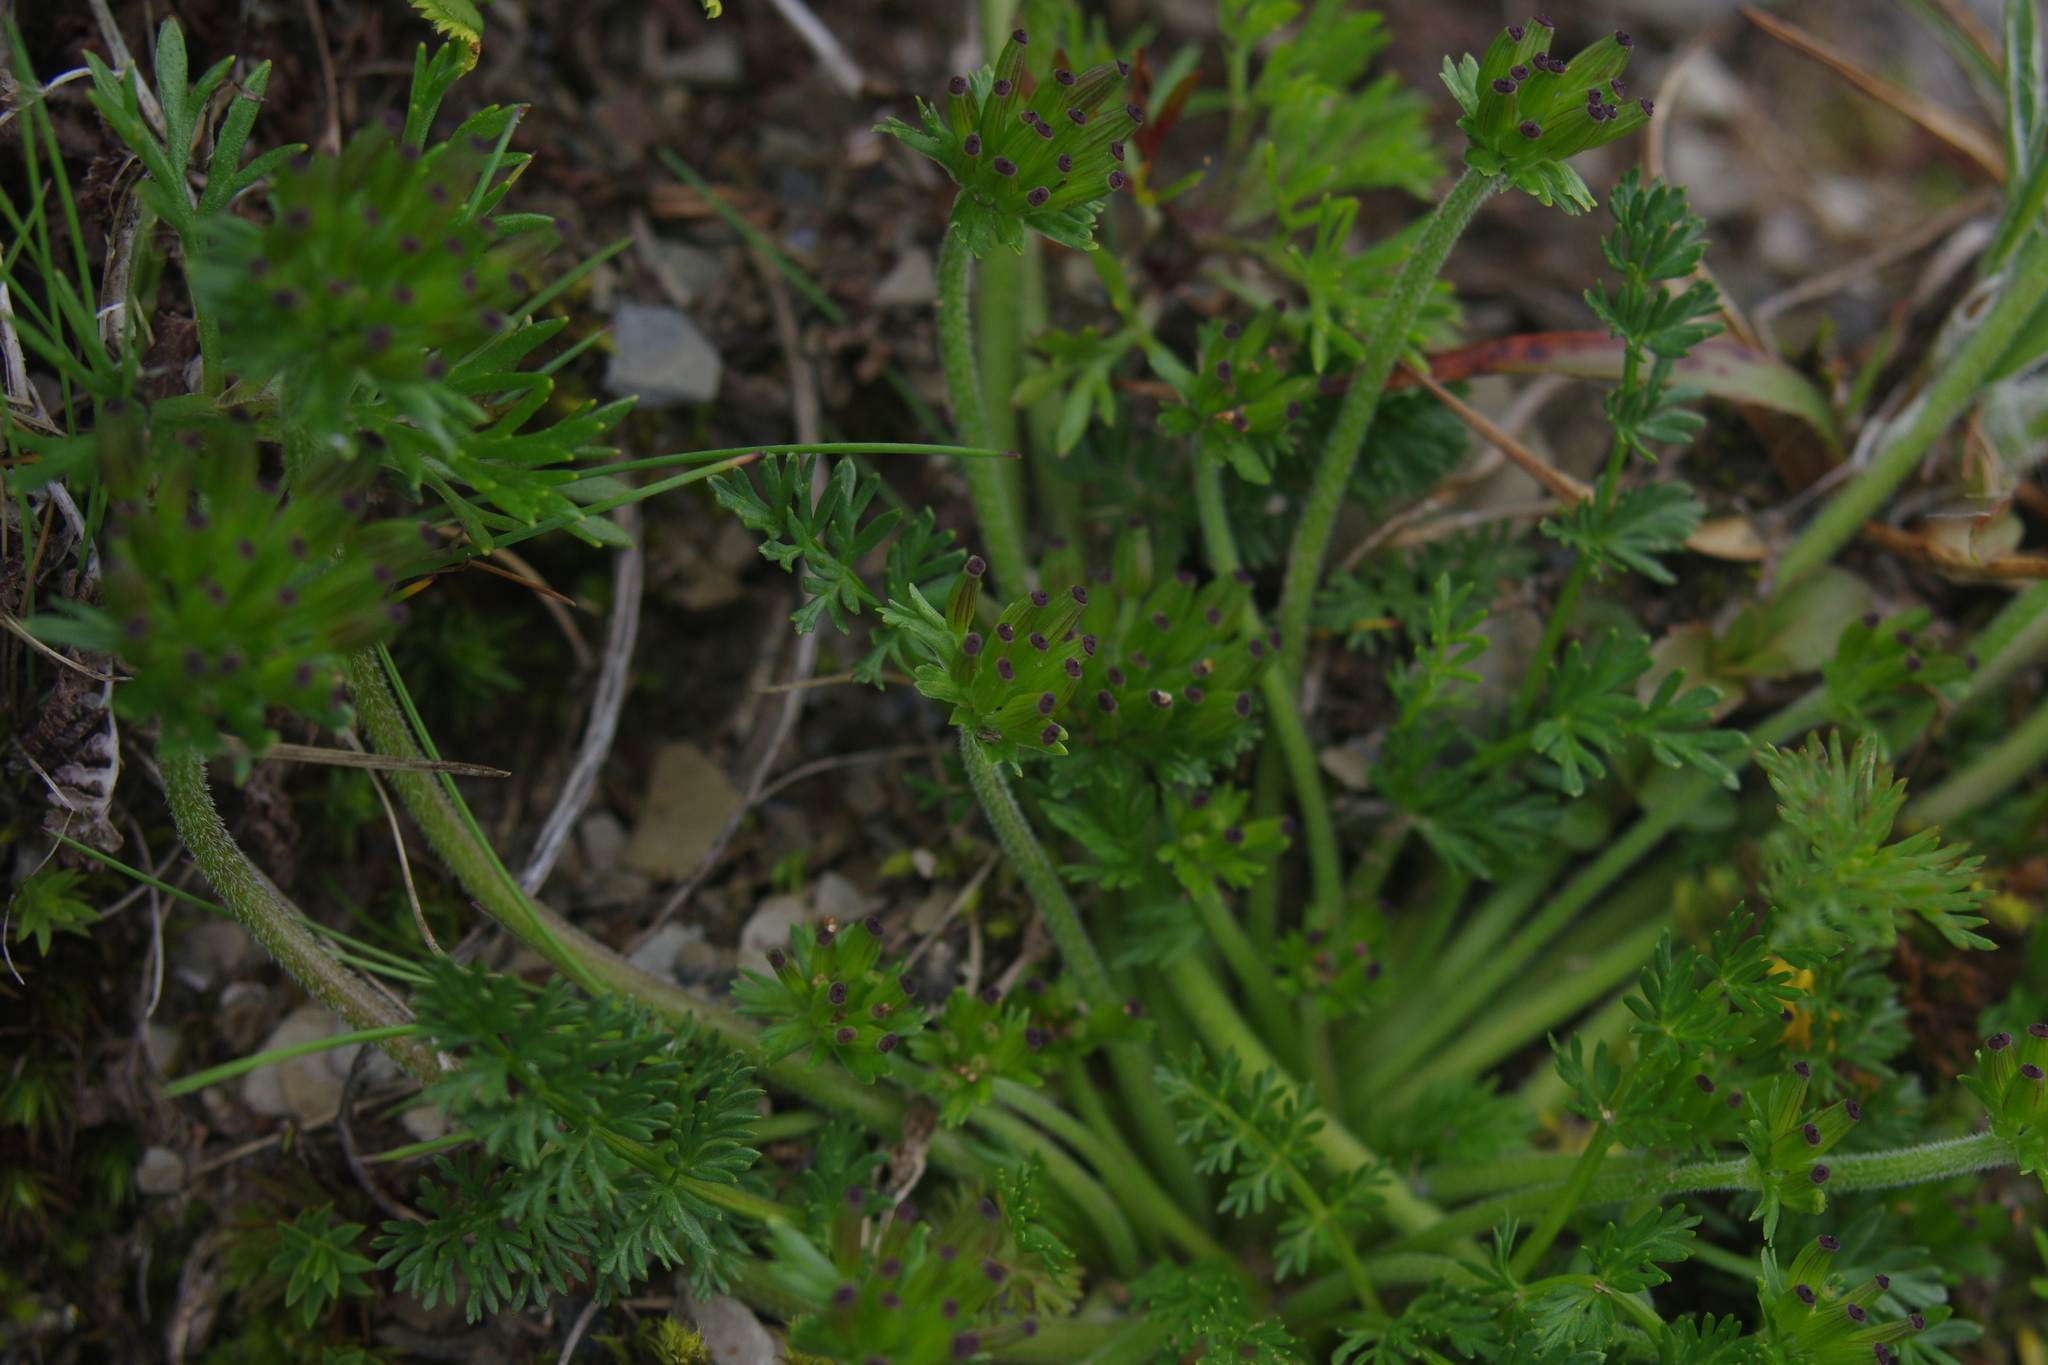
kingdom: Plantae
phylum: Tracheophyta
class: Magnoliopsida
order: Apiales
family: Apiaceae
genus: Chaerophyllum
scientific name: Chaerophyllum taiwanianum
